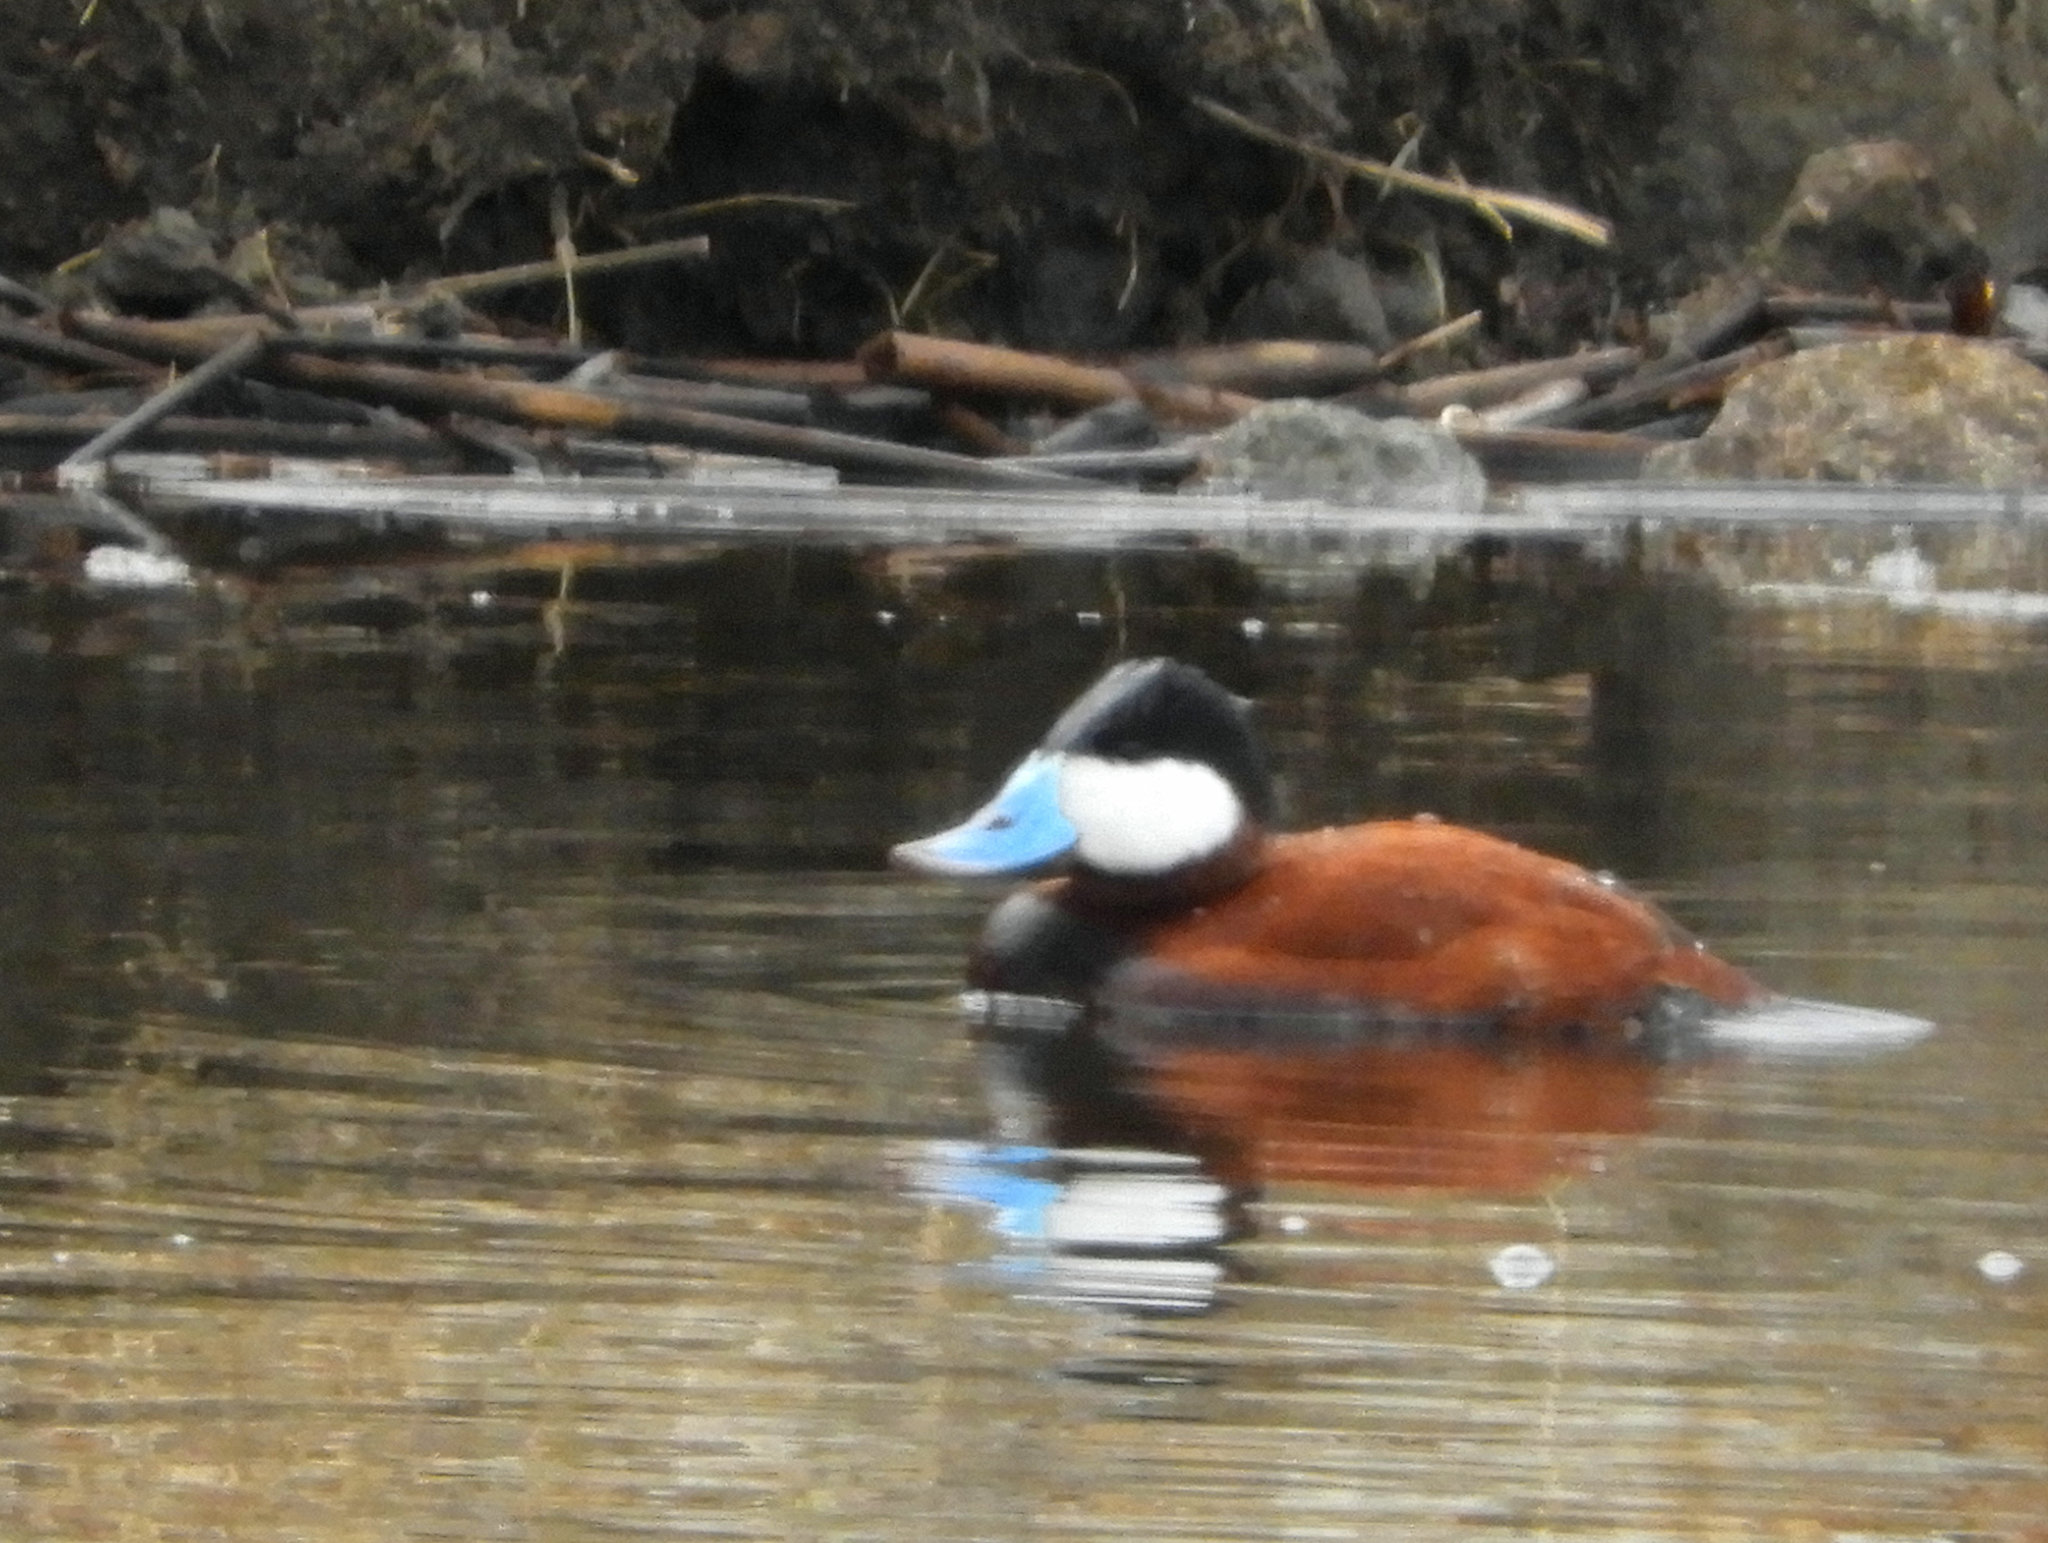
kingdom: Animalia
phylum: Chordata
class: Aves
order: Anseriformes
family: Anatidae
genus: Oxyura
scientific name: Oxyura jamaicensis
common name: Ruddy duck
